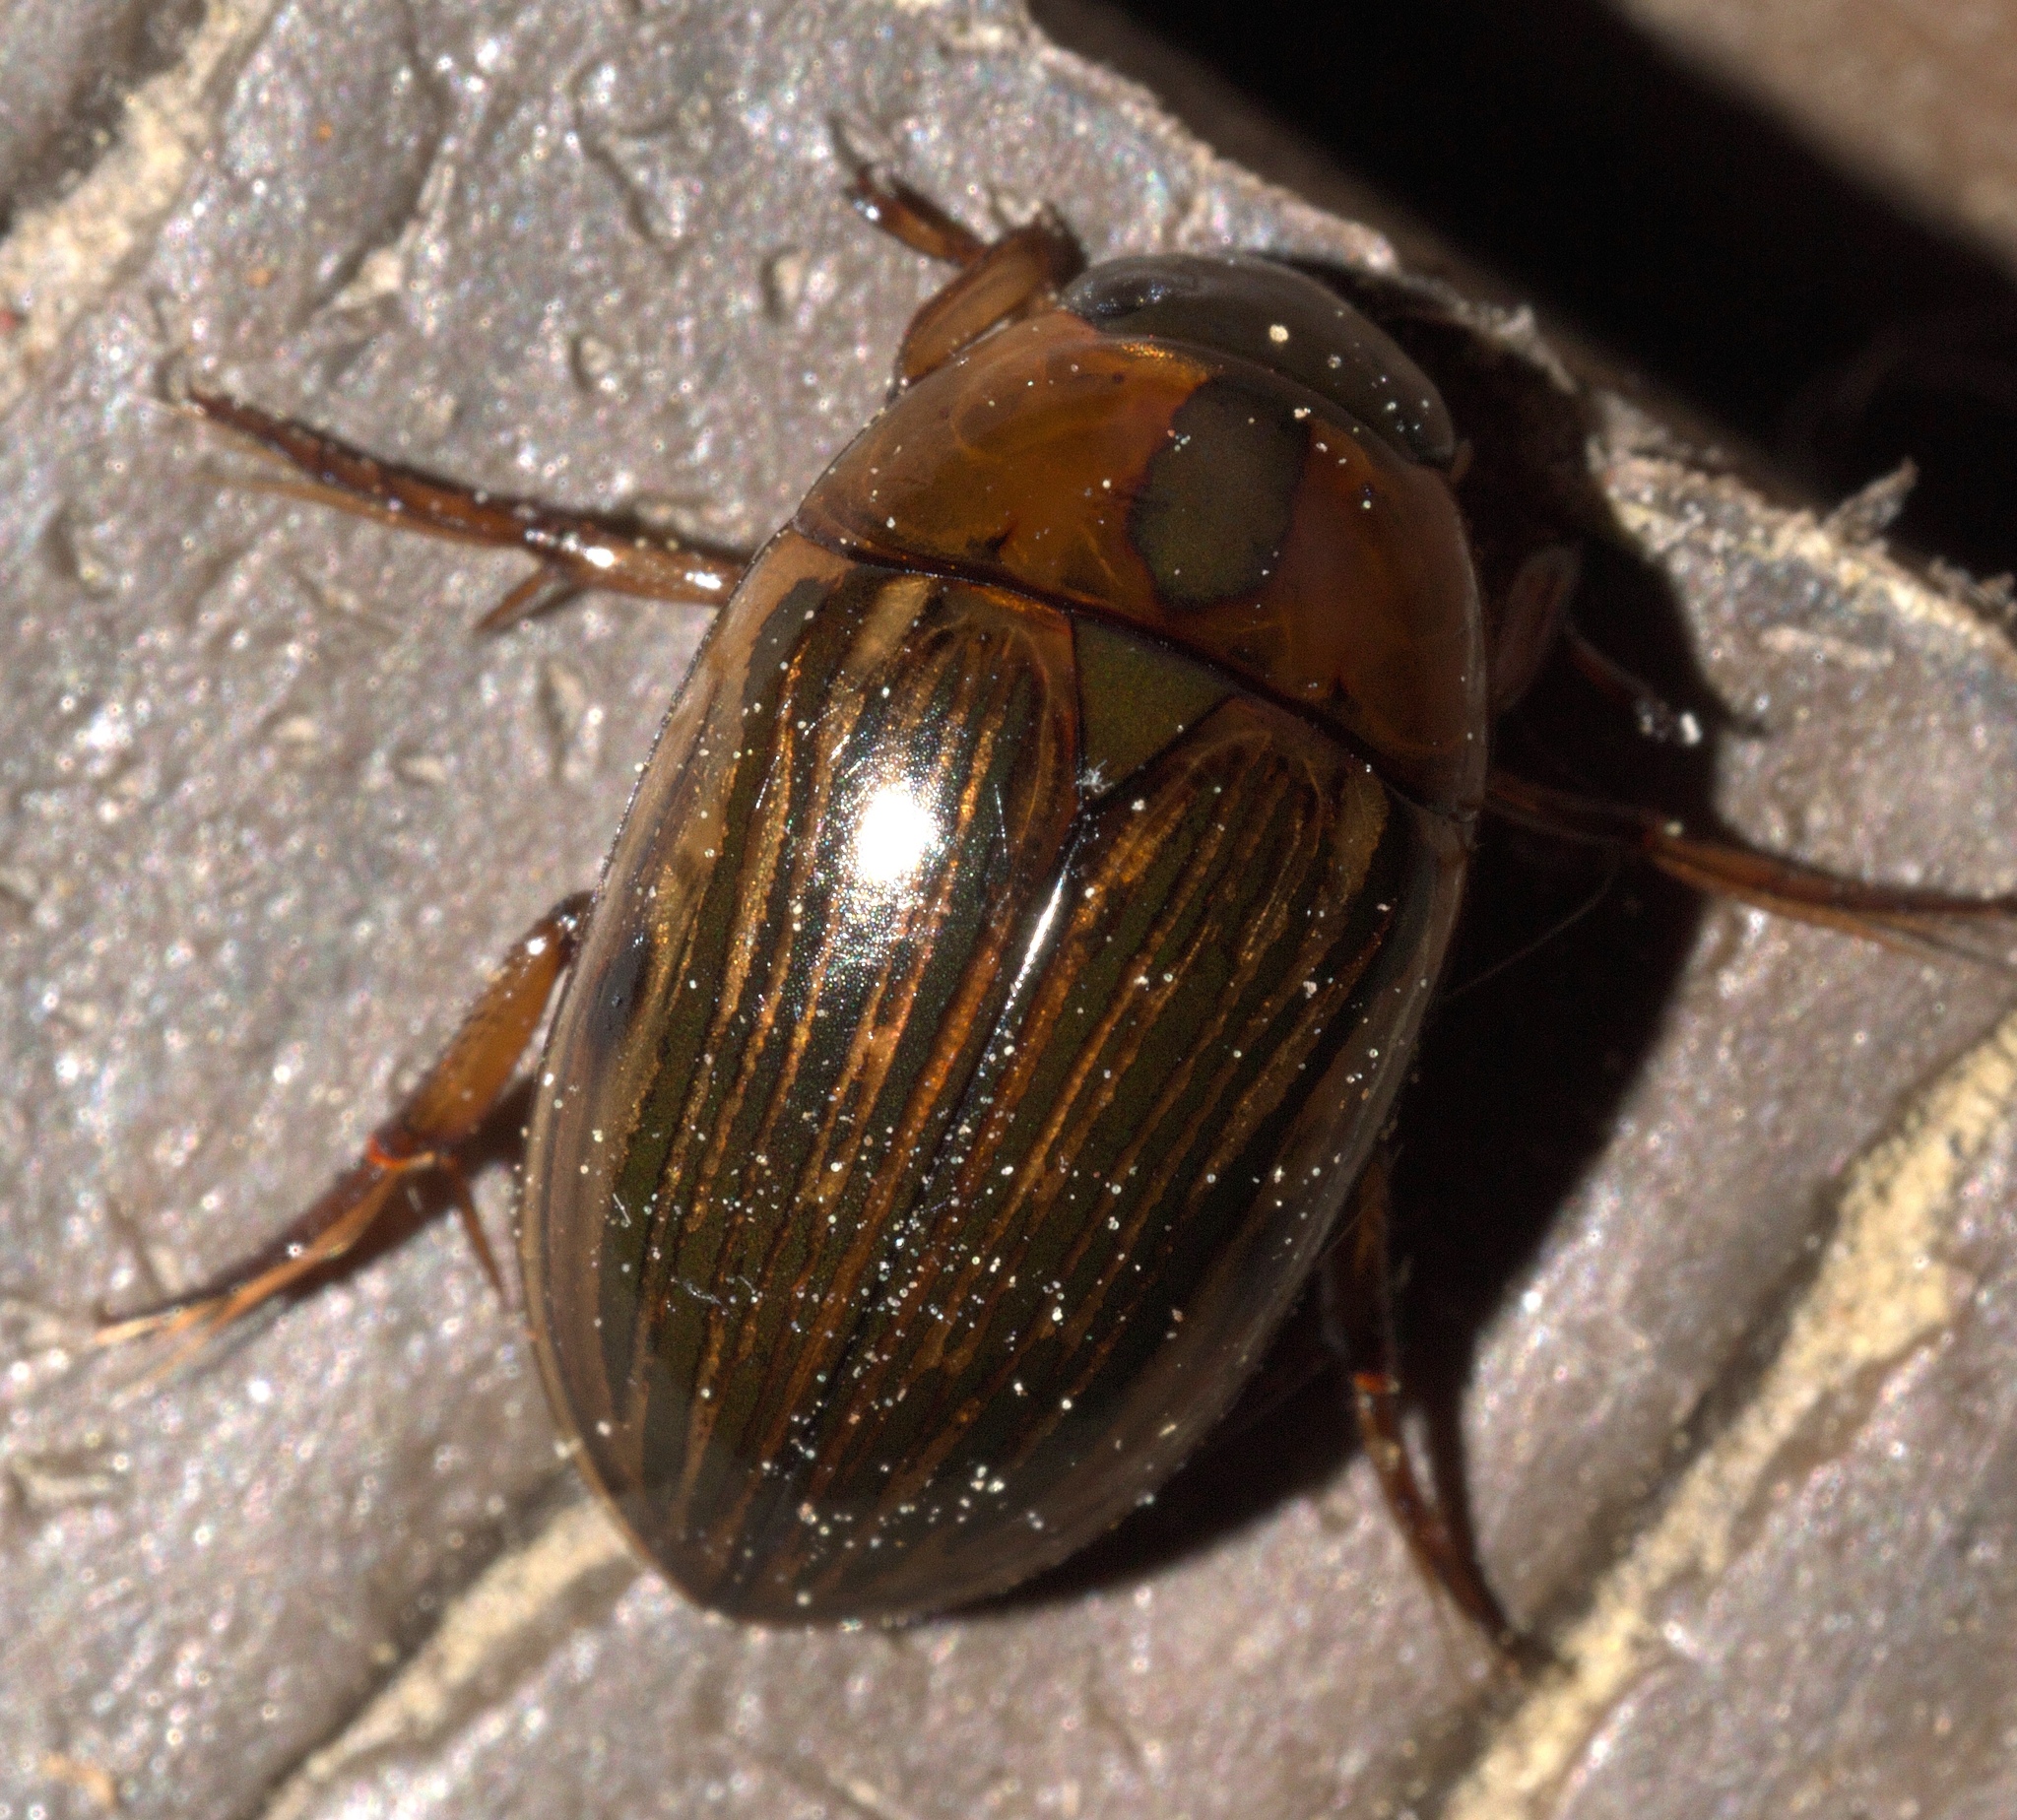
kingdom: Animalia
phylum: Arthropoda
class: Insecta
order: Coleoptera
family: Hydrophilidae
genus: Tropisternus
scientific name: Tropisternus collaris
